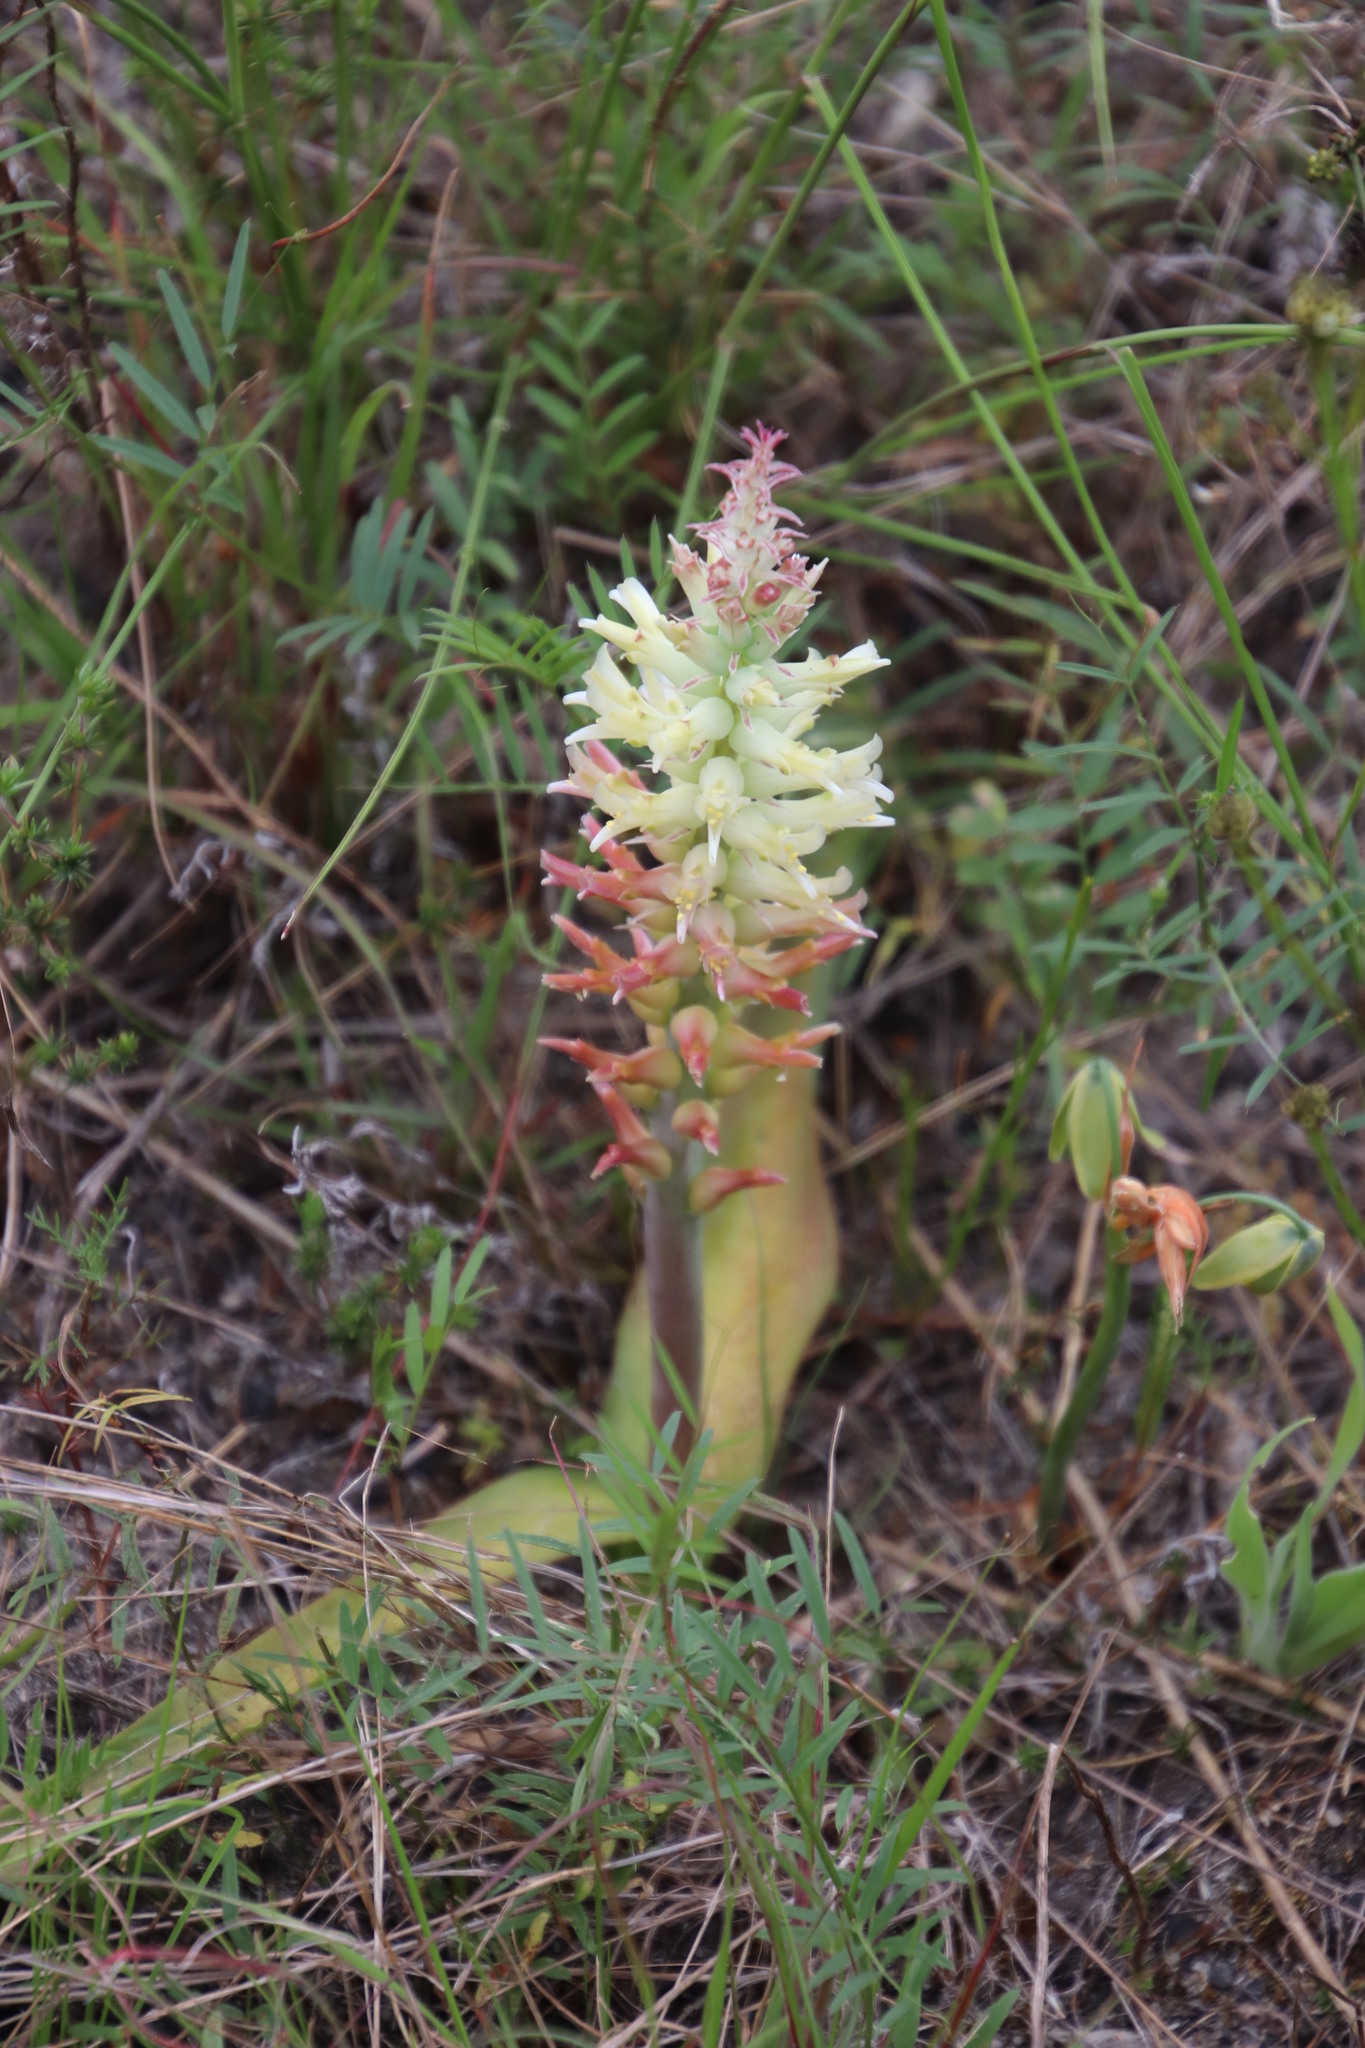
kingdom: Plantae
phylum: Tracheophyta
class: Liliopsida
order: Asparagales
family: Asparagaceae
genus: Lachenalia
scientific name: Lachenalia orchioides
